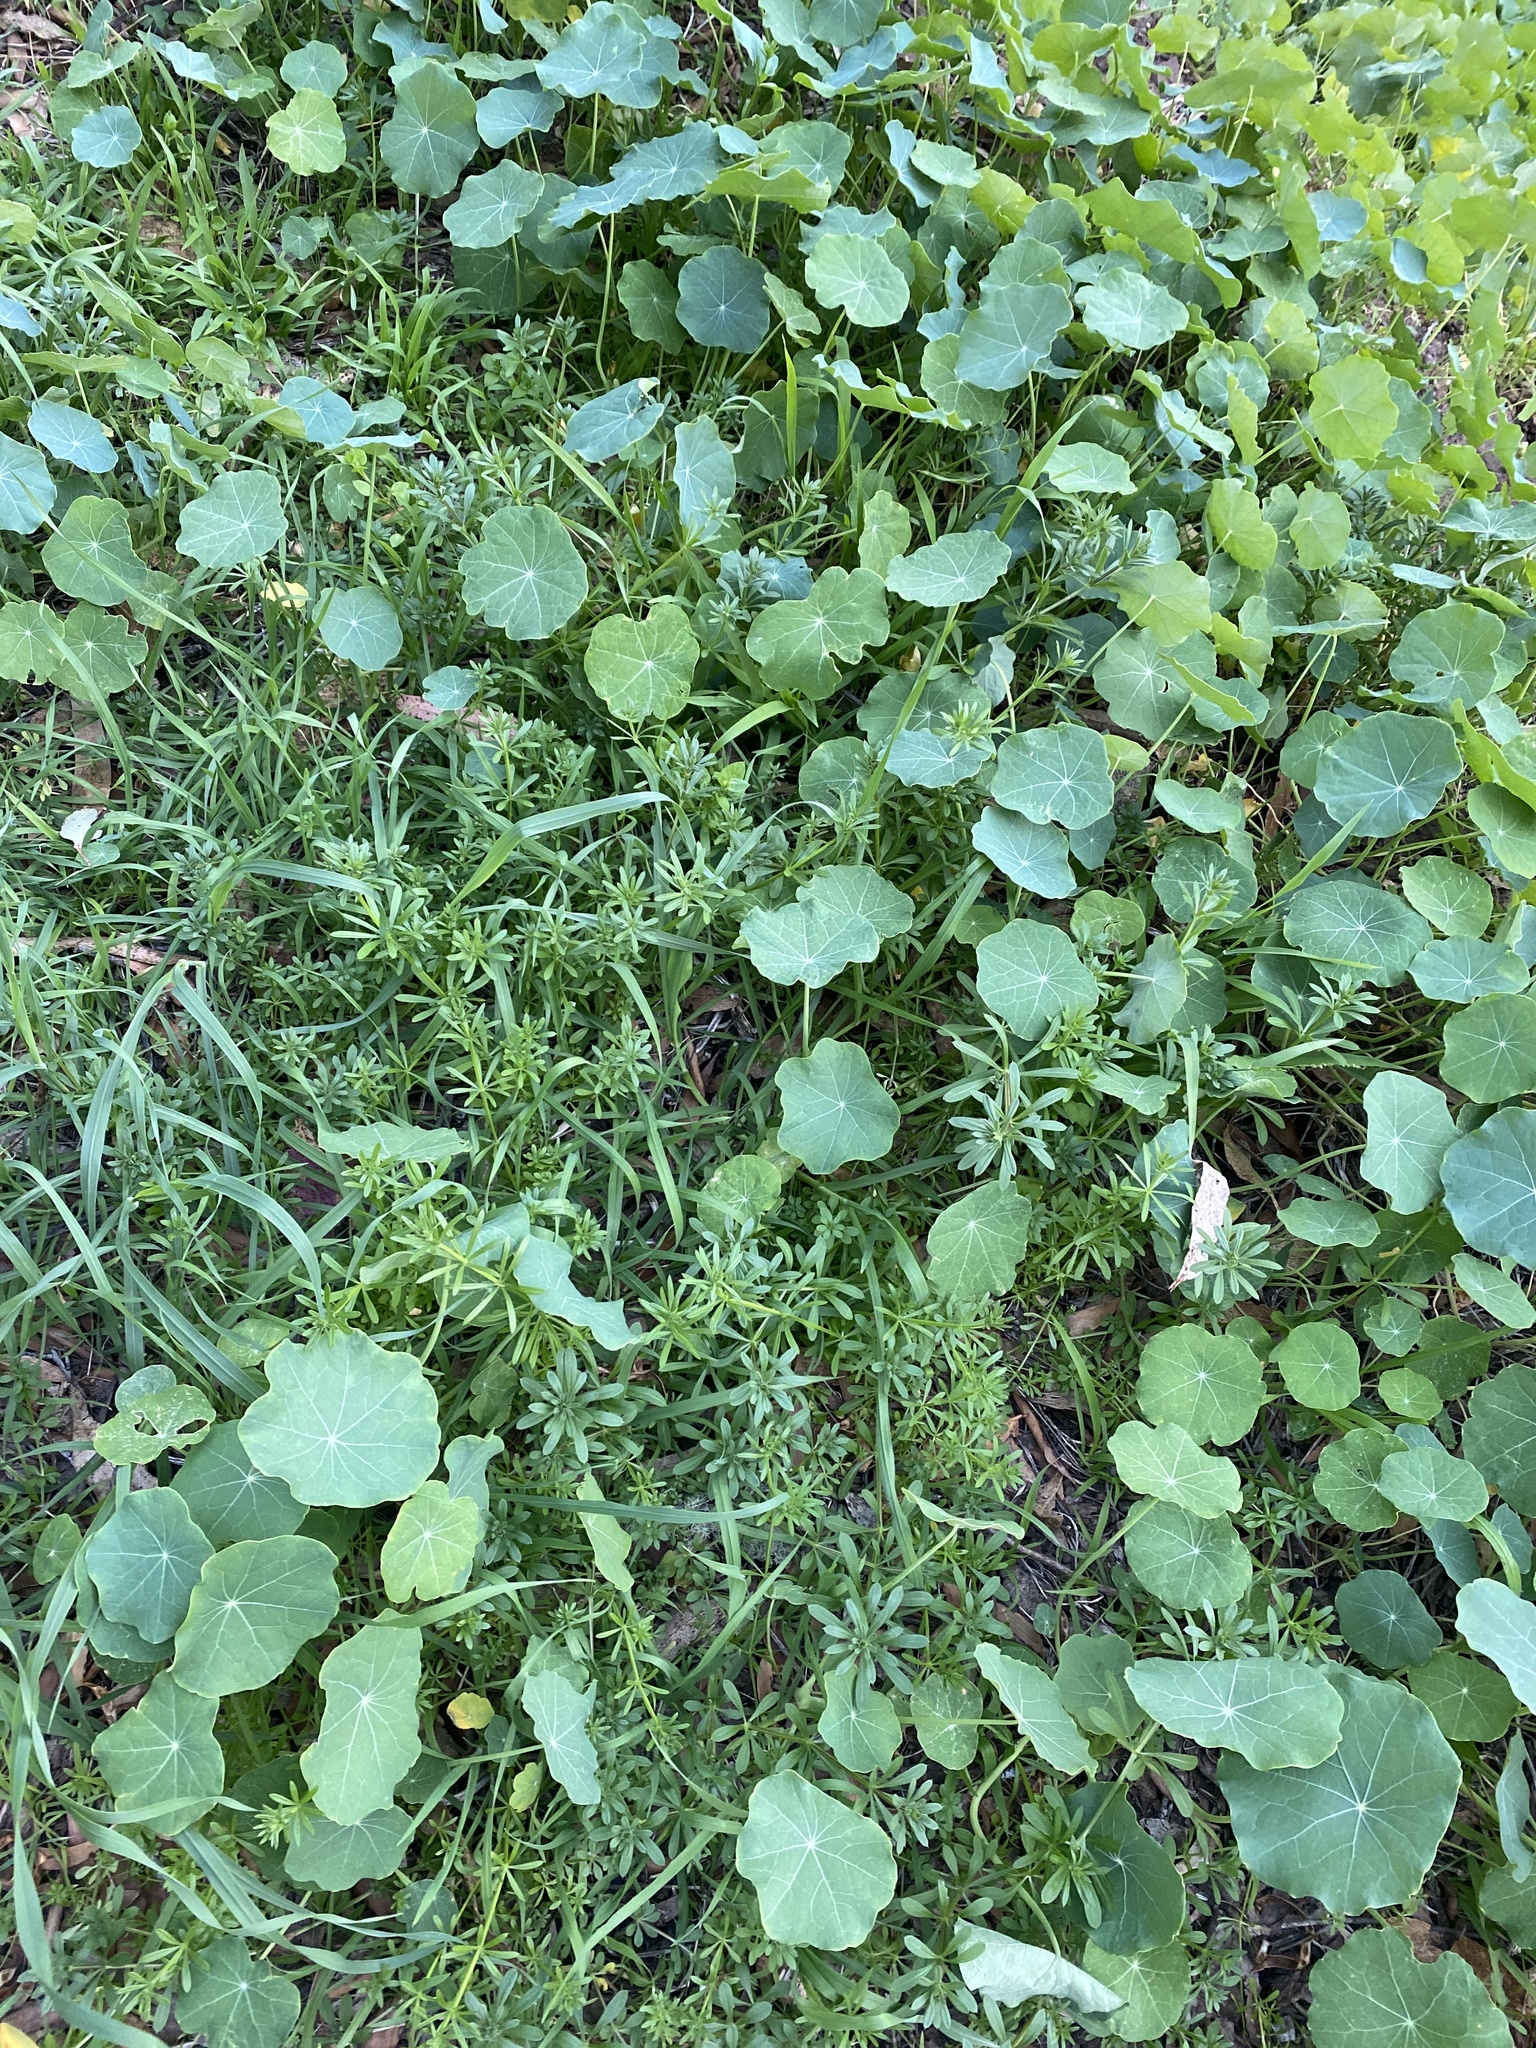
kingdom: Plantae
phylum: Tracheophyta
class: Magnoliopsida
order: Brassicales
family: Tropaeolaceae
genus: Tropaeolum
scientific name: Tropaeolum majus
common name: Nasturtium
